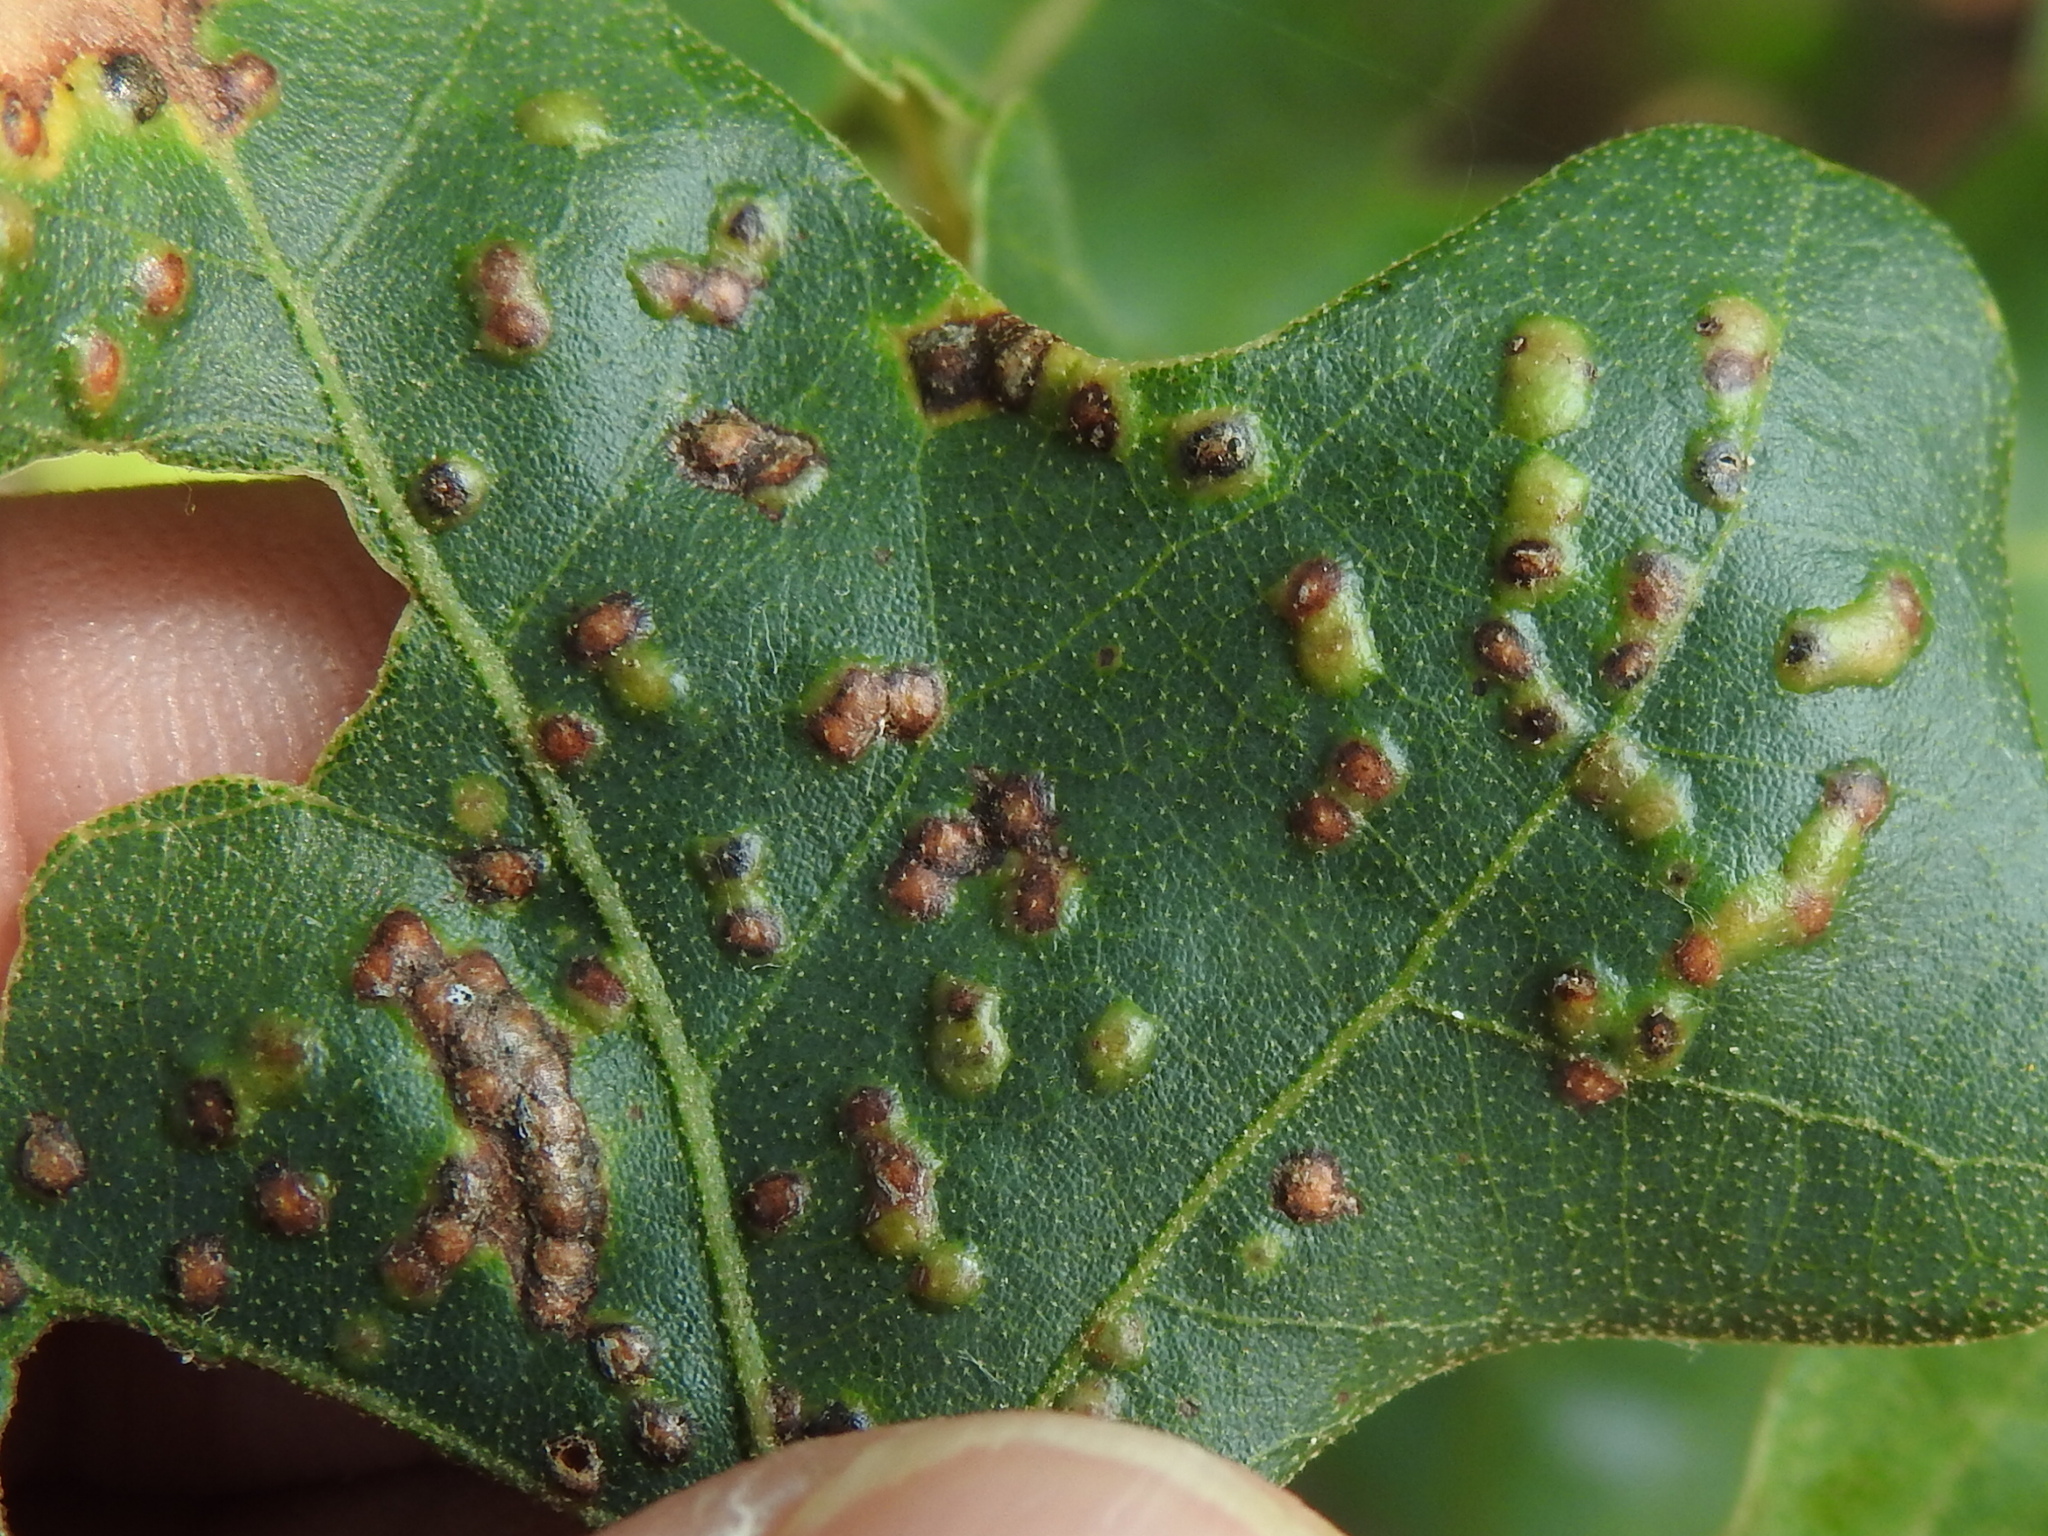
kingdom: Animalia
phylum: Arthropoda
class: Insecta
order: Hymenoptera
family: Cynipidae
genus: Neuroterus
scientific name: Neuroterus niger
